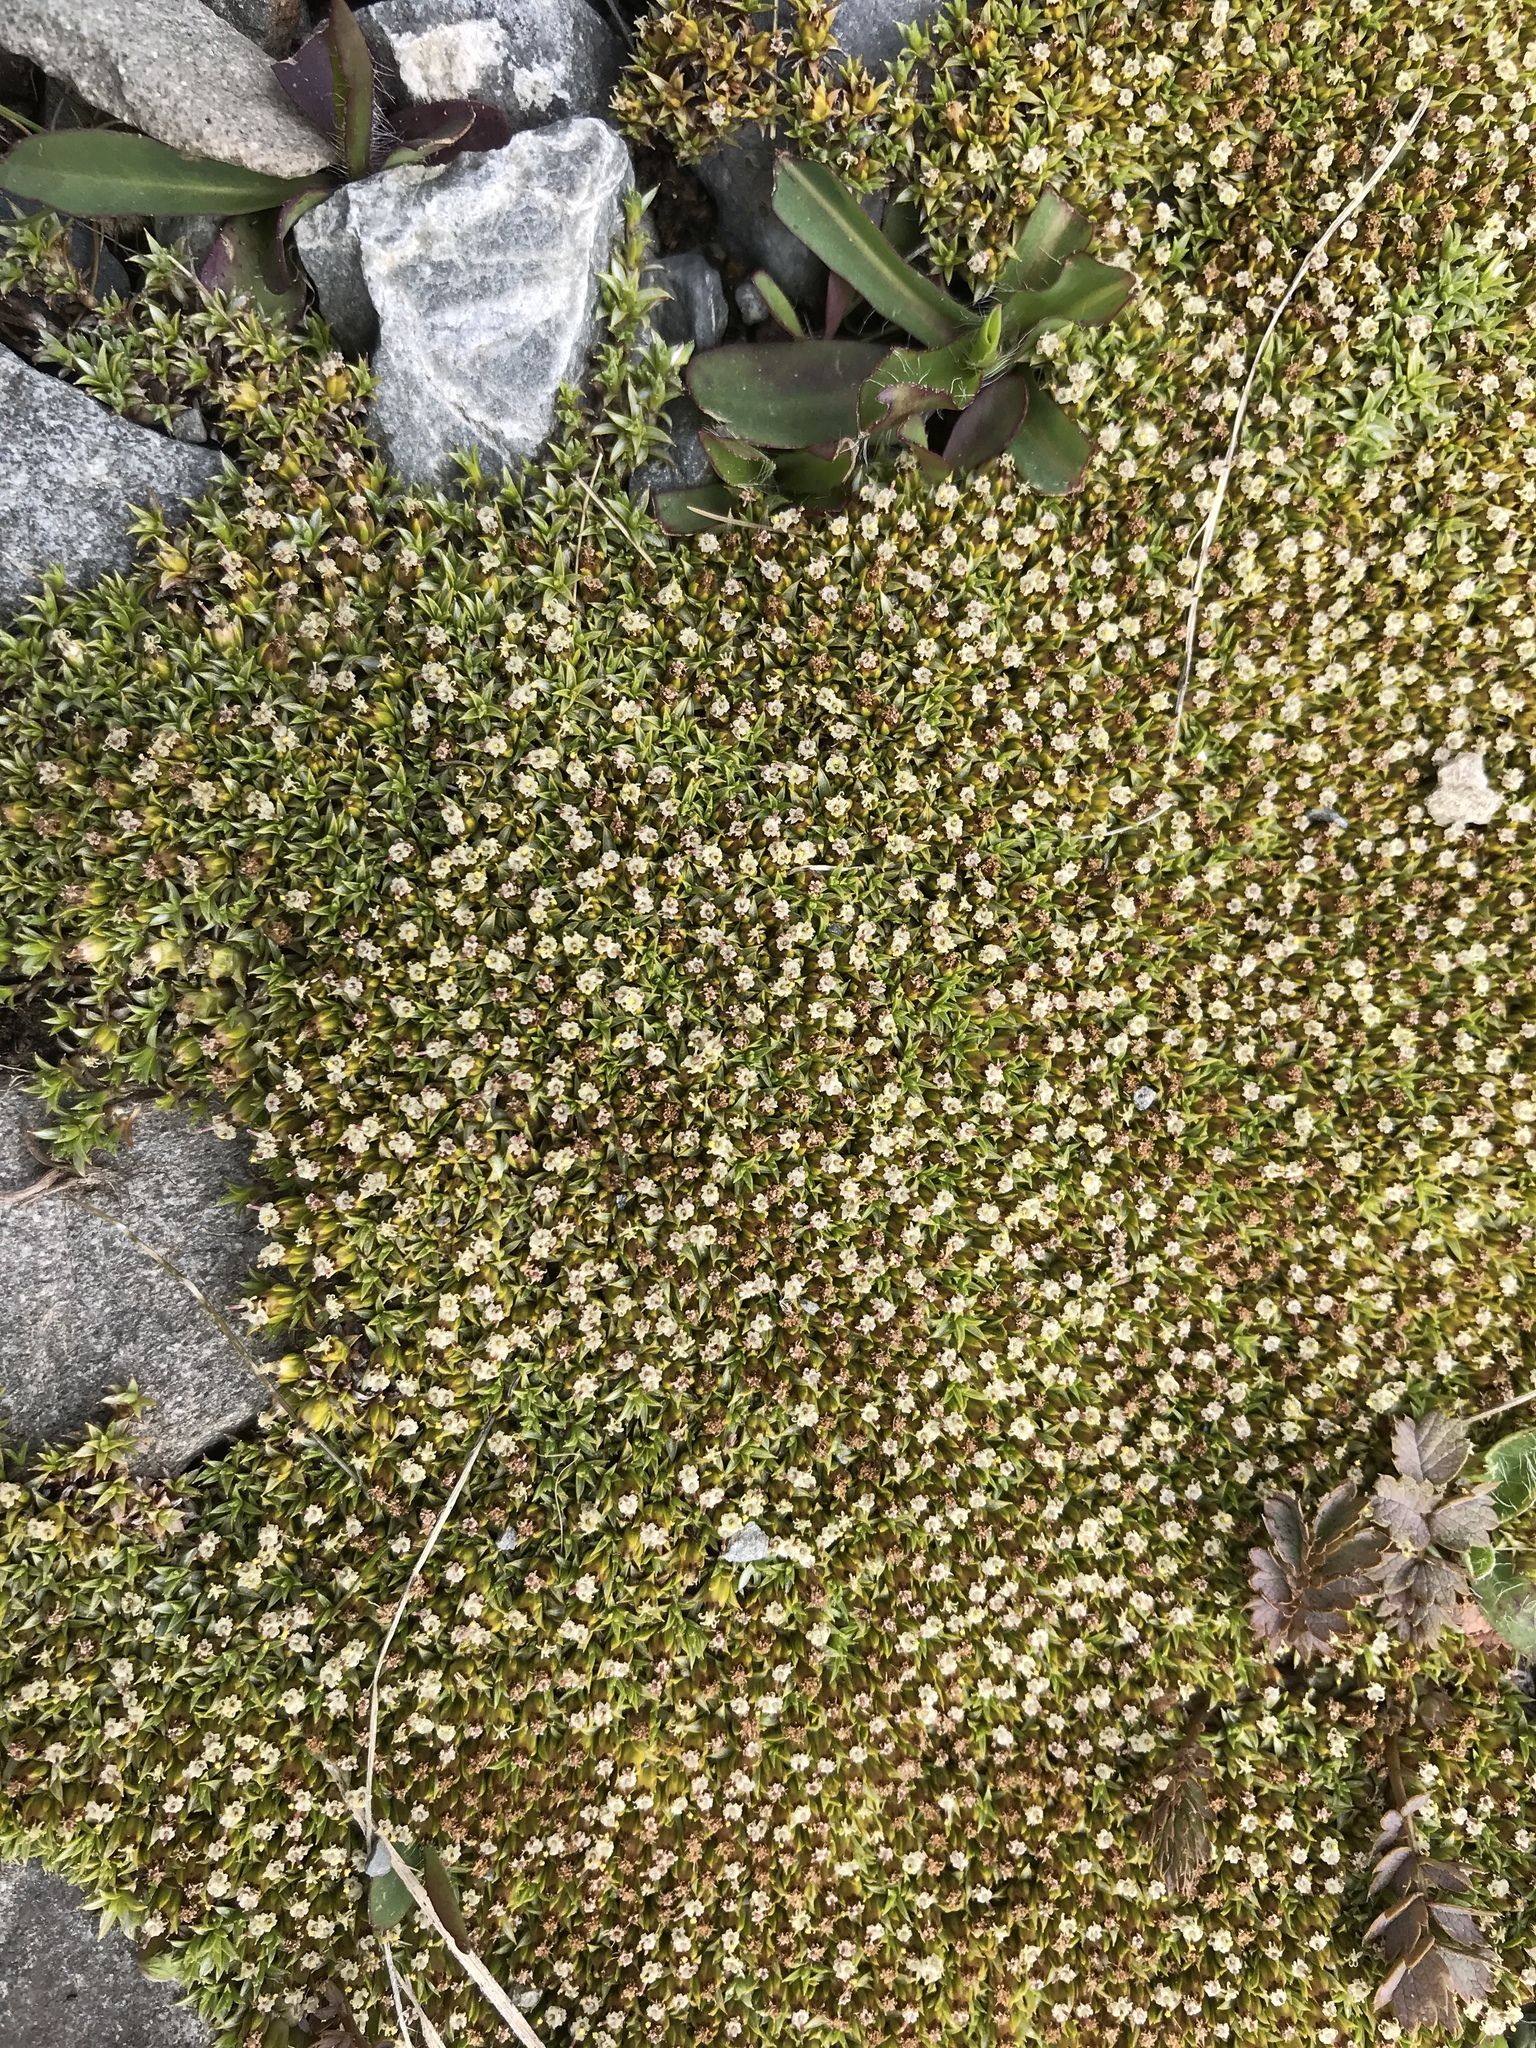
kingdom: Plantae
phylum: Tracheophyta
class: Magnoliopsida
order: Asterales
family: Asteraceae
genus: Raoulia
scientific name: Raoulia tenuicaulis
